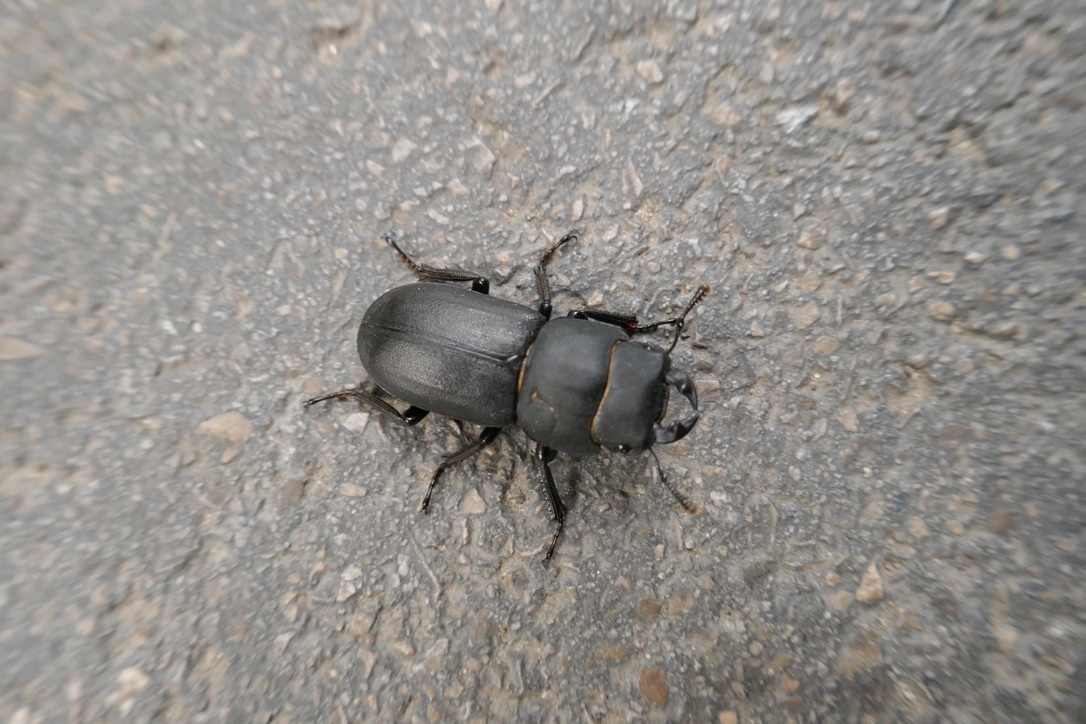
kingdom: Animalia
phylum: Arthropoda
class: Insecta
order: Coleoptera
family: Lucanidae
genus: Dorcus
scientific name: Dorcus parallelipipedus
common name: Lesser stag beetle
